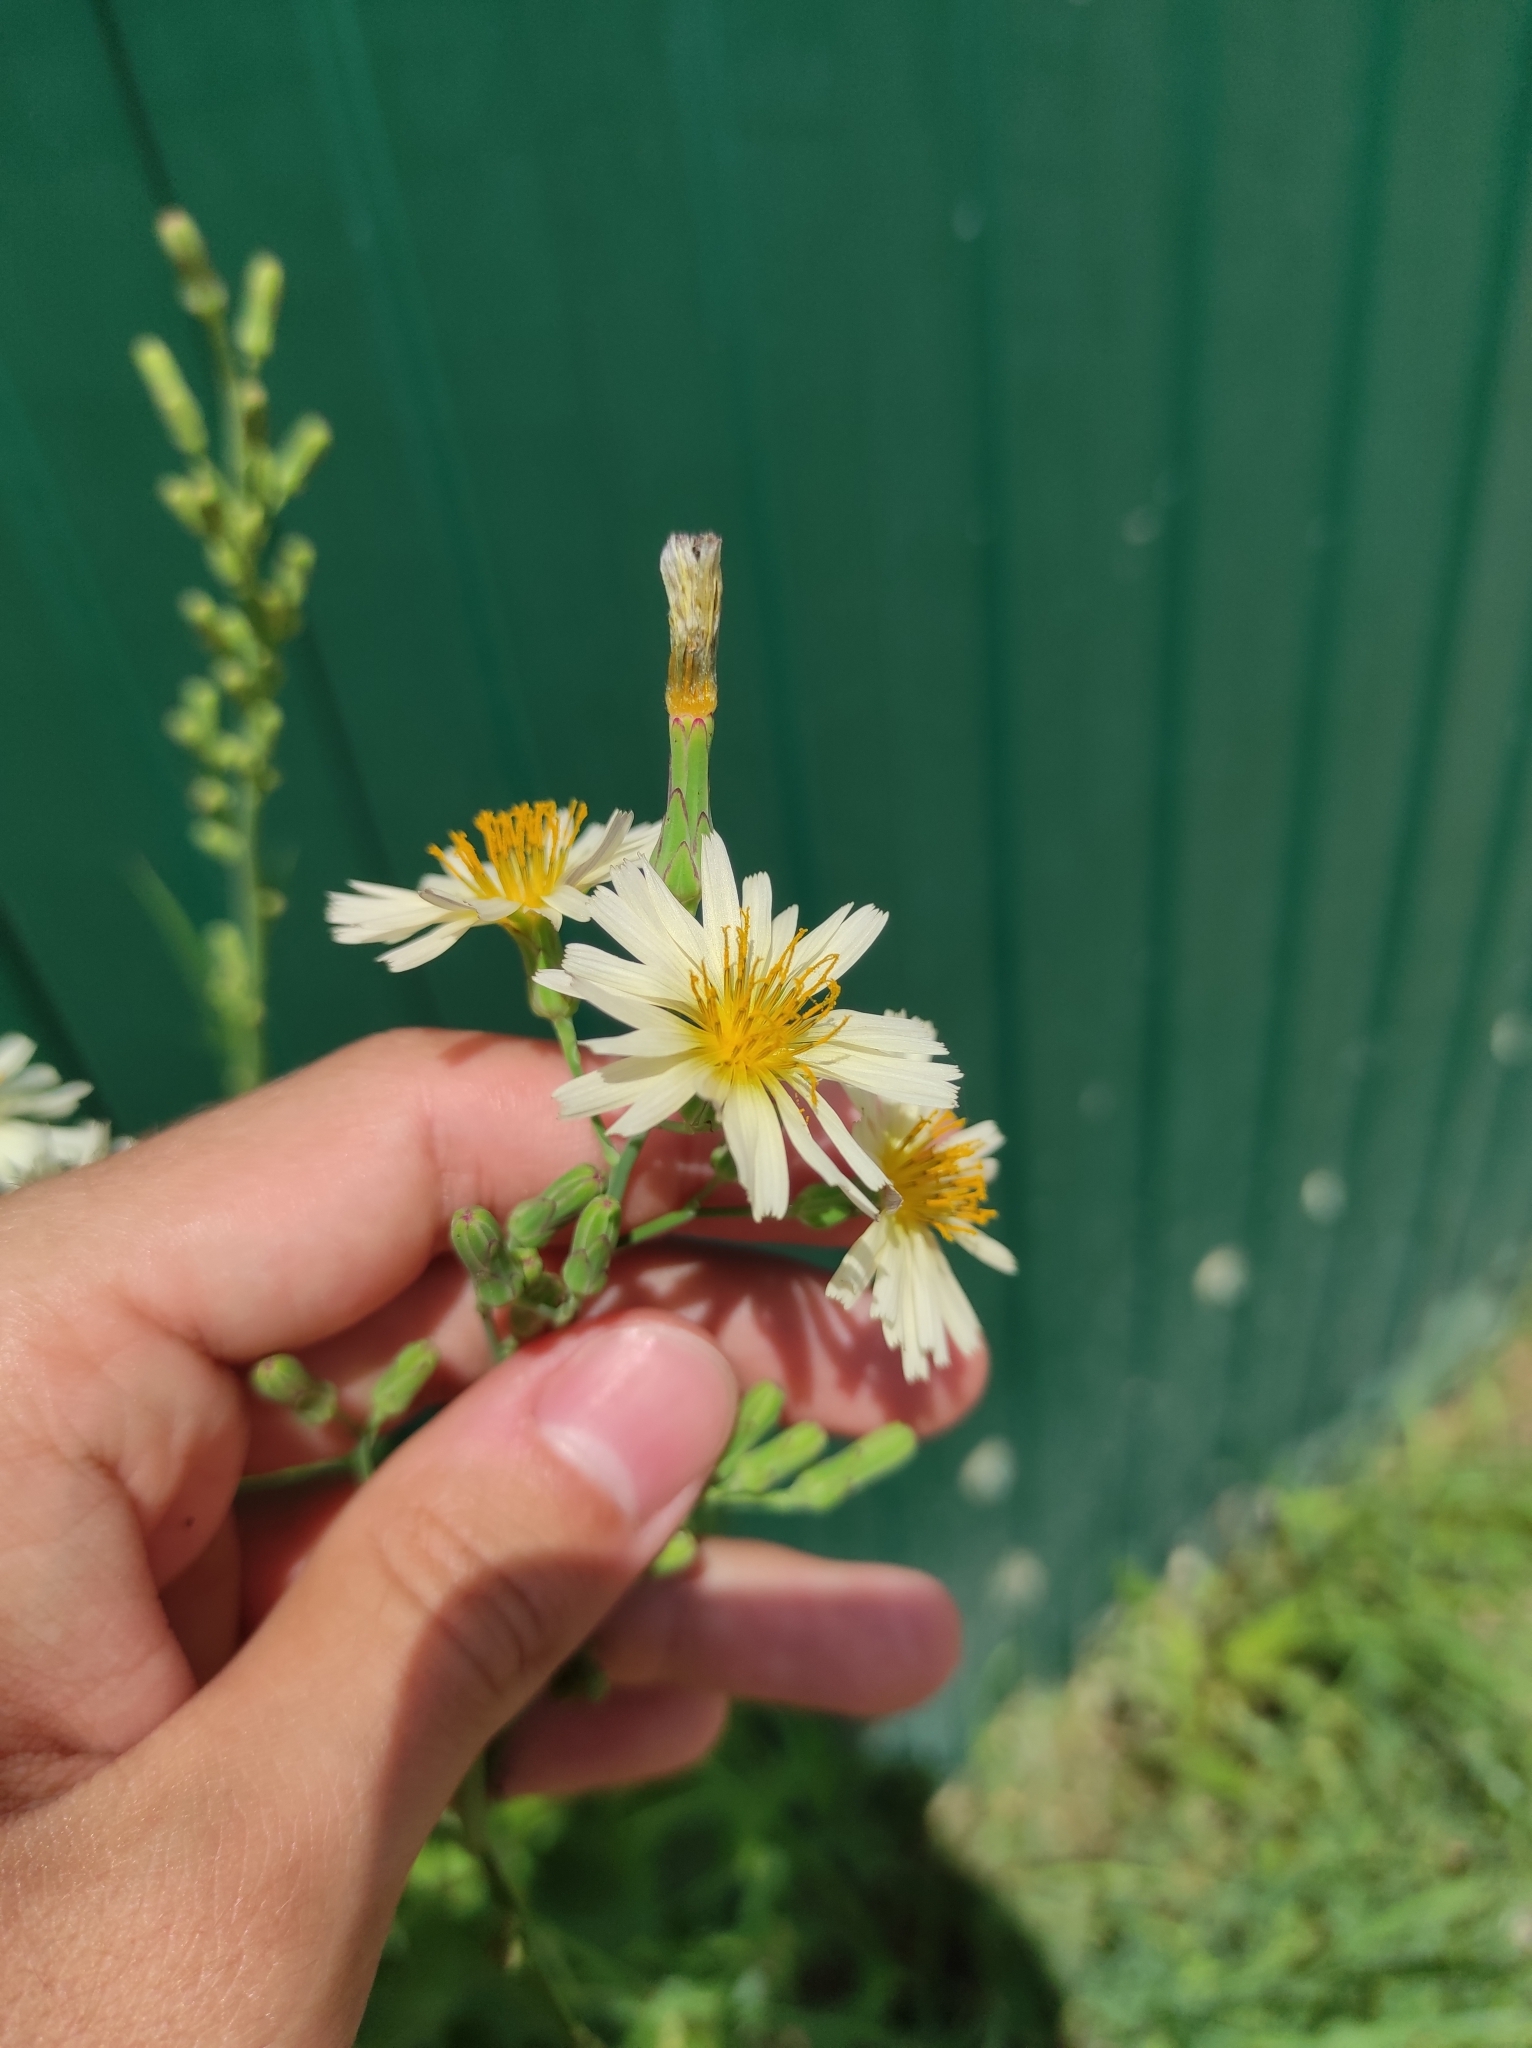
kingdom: Plantae
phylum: Tracheophyta
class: Magnoliopsida
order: Asterales
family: Asteraceae
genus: Lactuca
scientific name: Lactuca indica
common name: Wild lettuce
